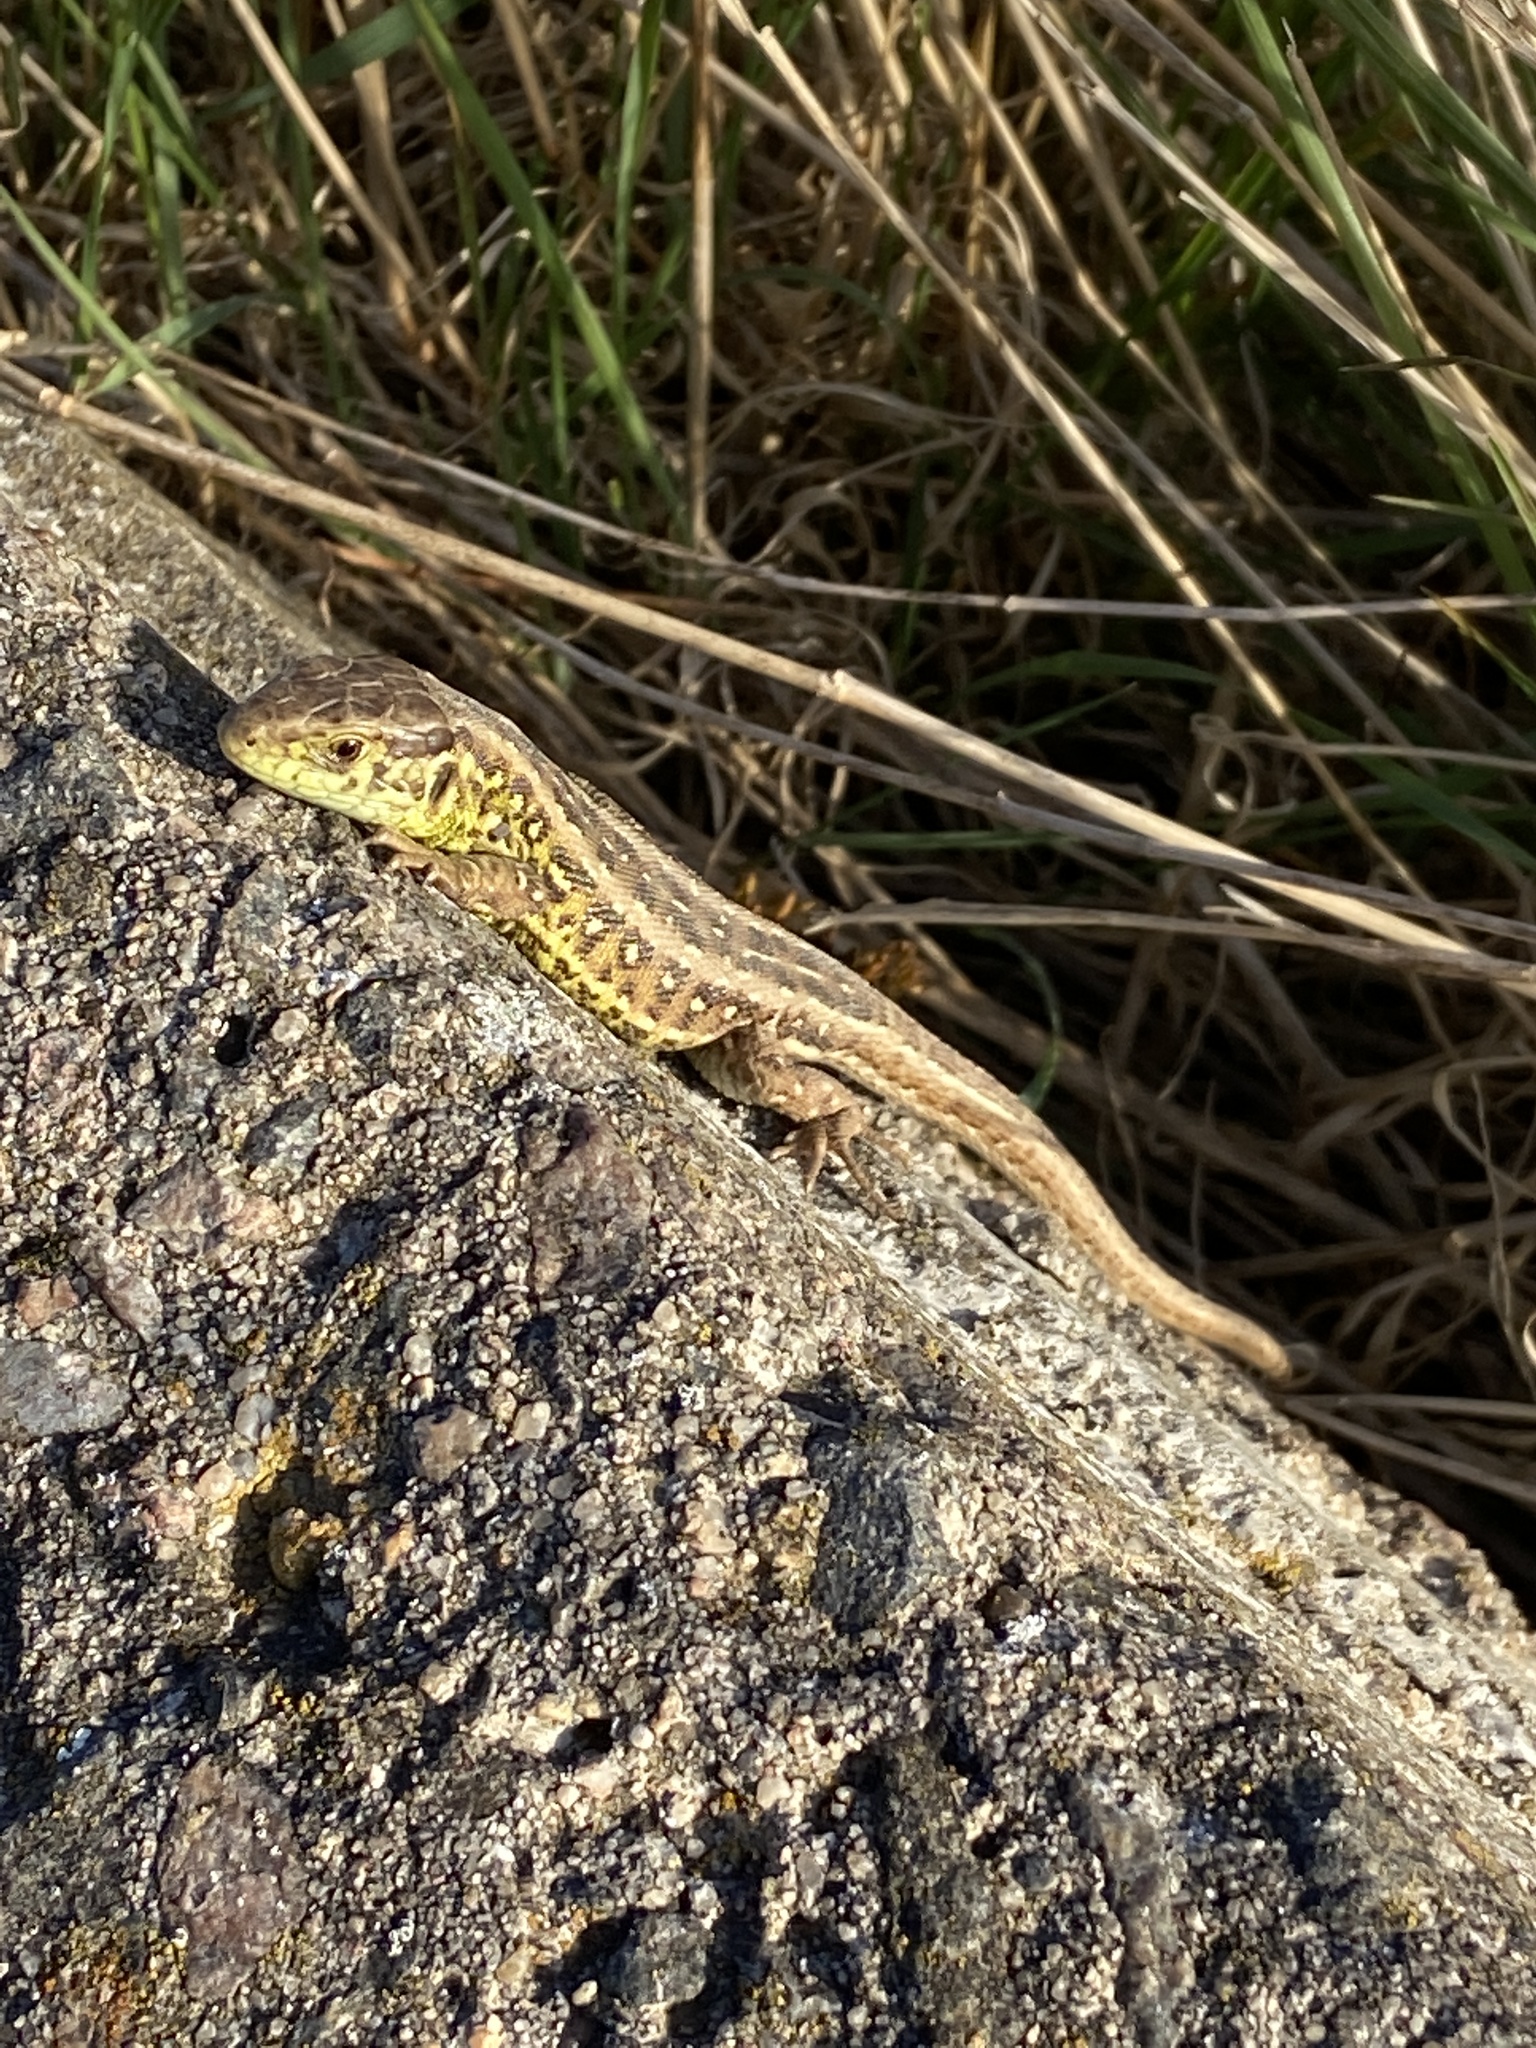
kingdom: Animalia
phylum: Chordata
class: Squamata
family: Lacertidae
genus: Lacerta
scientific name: Lacerta agilis
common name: Sand lizard
